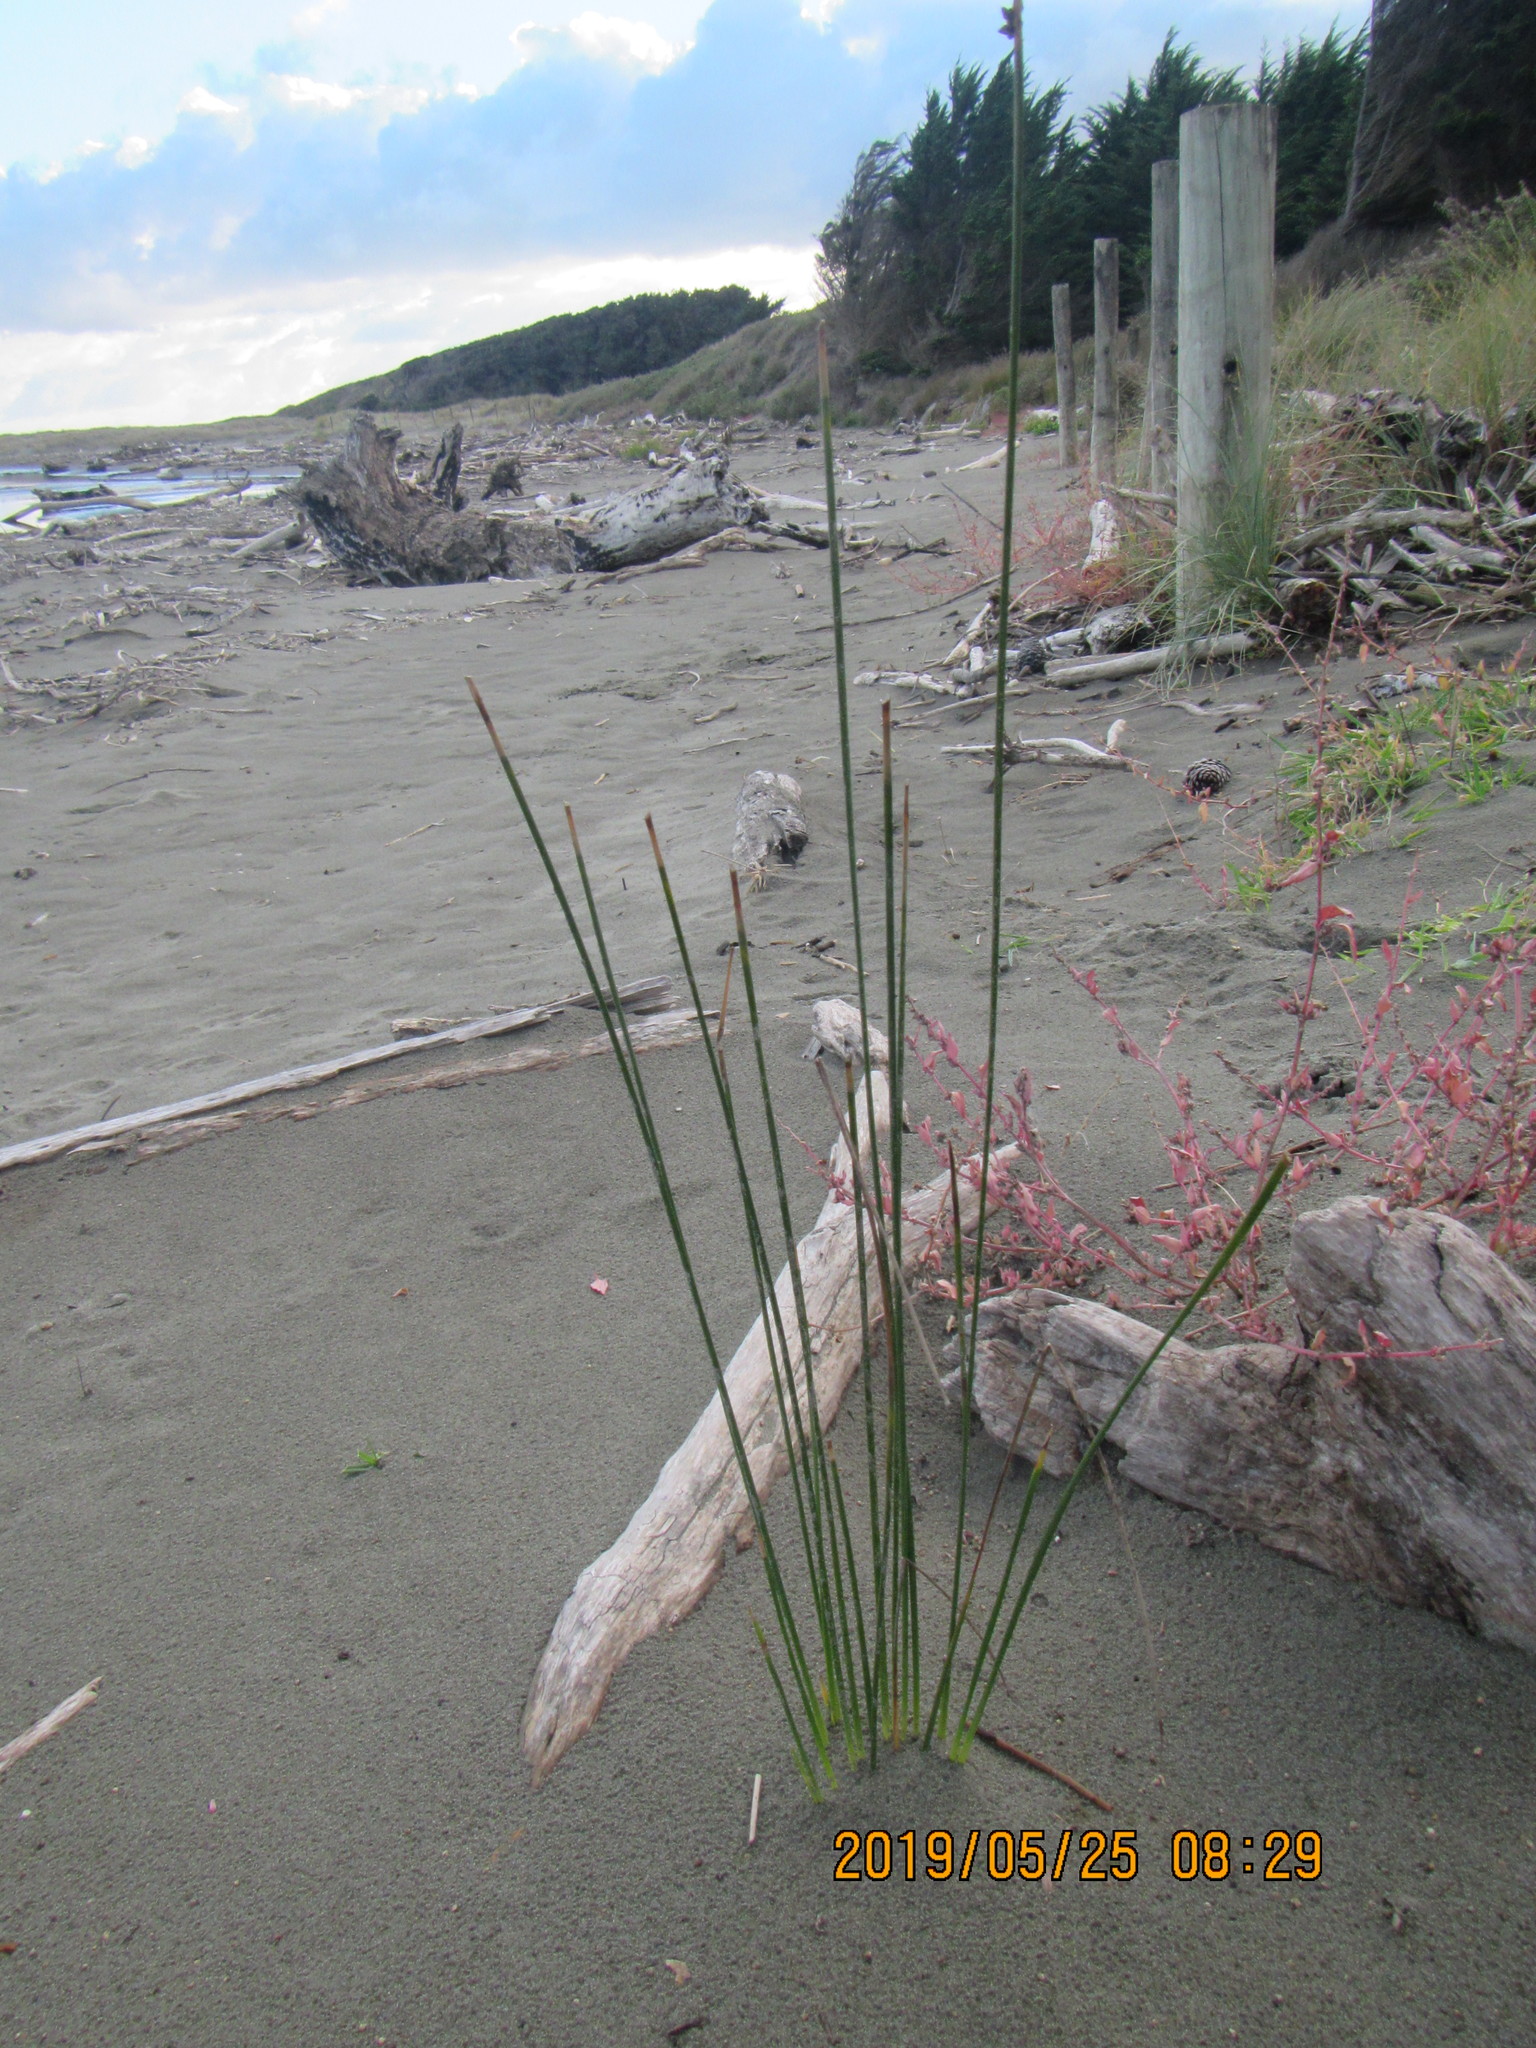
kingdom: Plantae
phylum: Tracheophyta
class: Liliopsida
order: Poales
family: Cyperaceae
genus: Ficinia
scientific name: Ficinia nodosa
